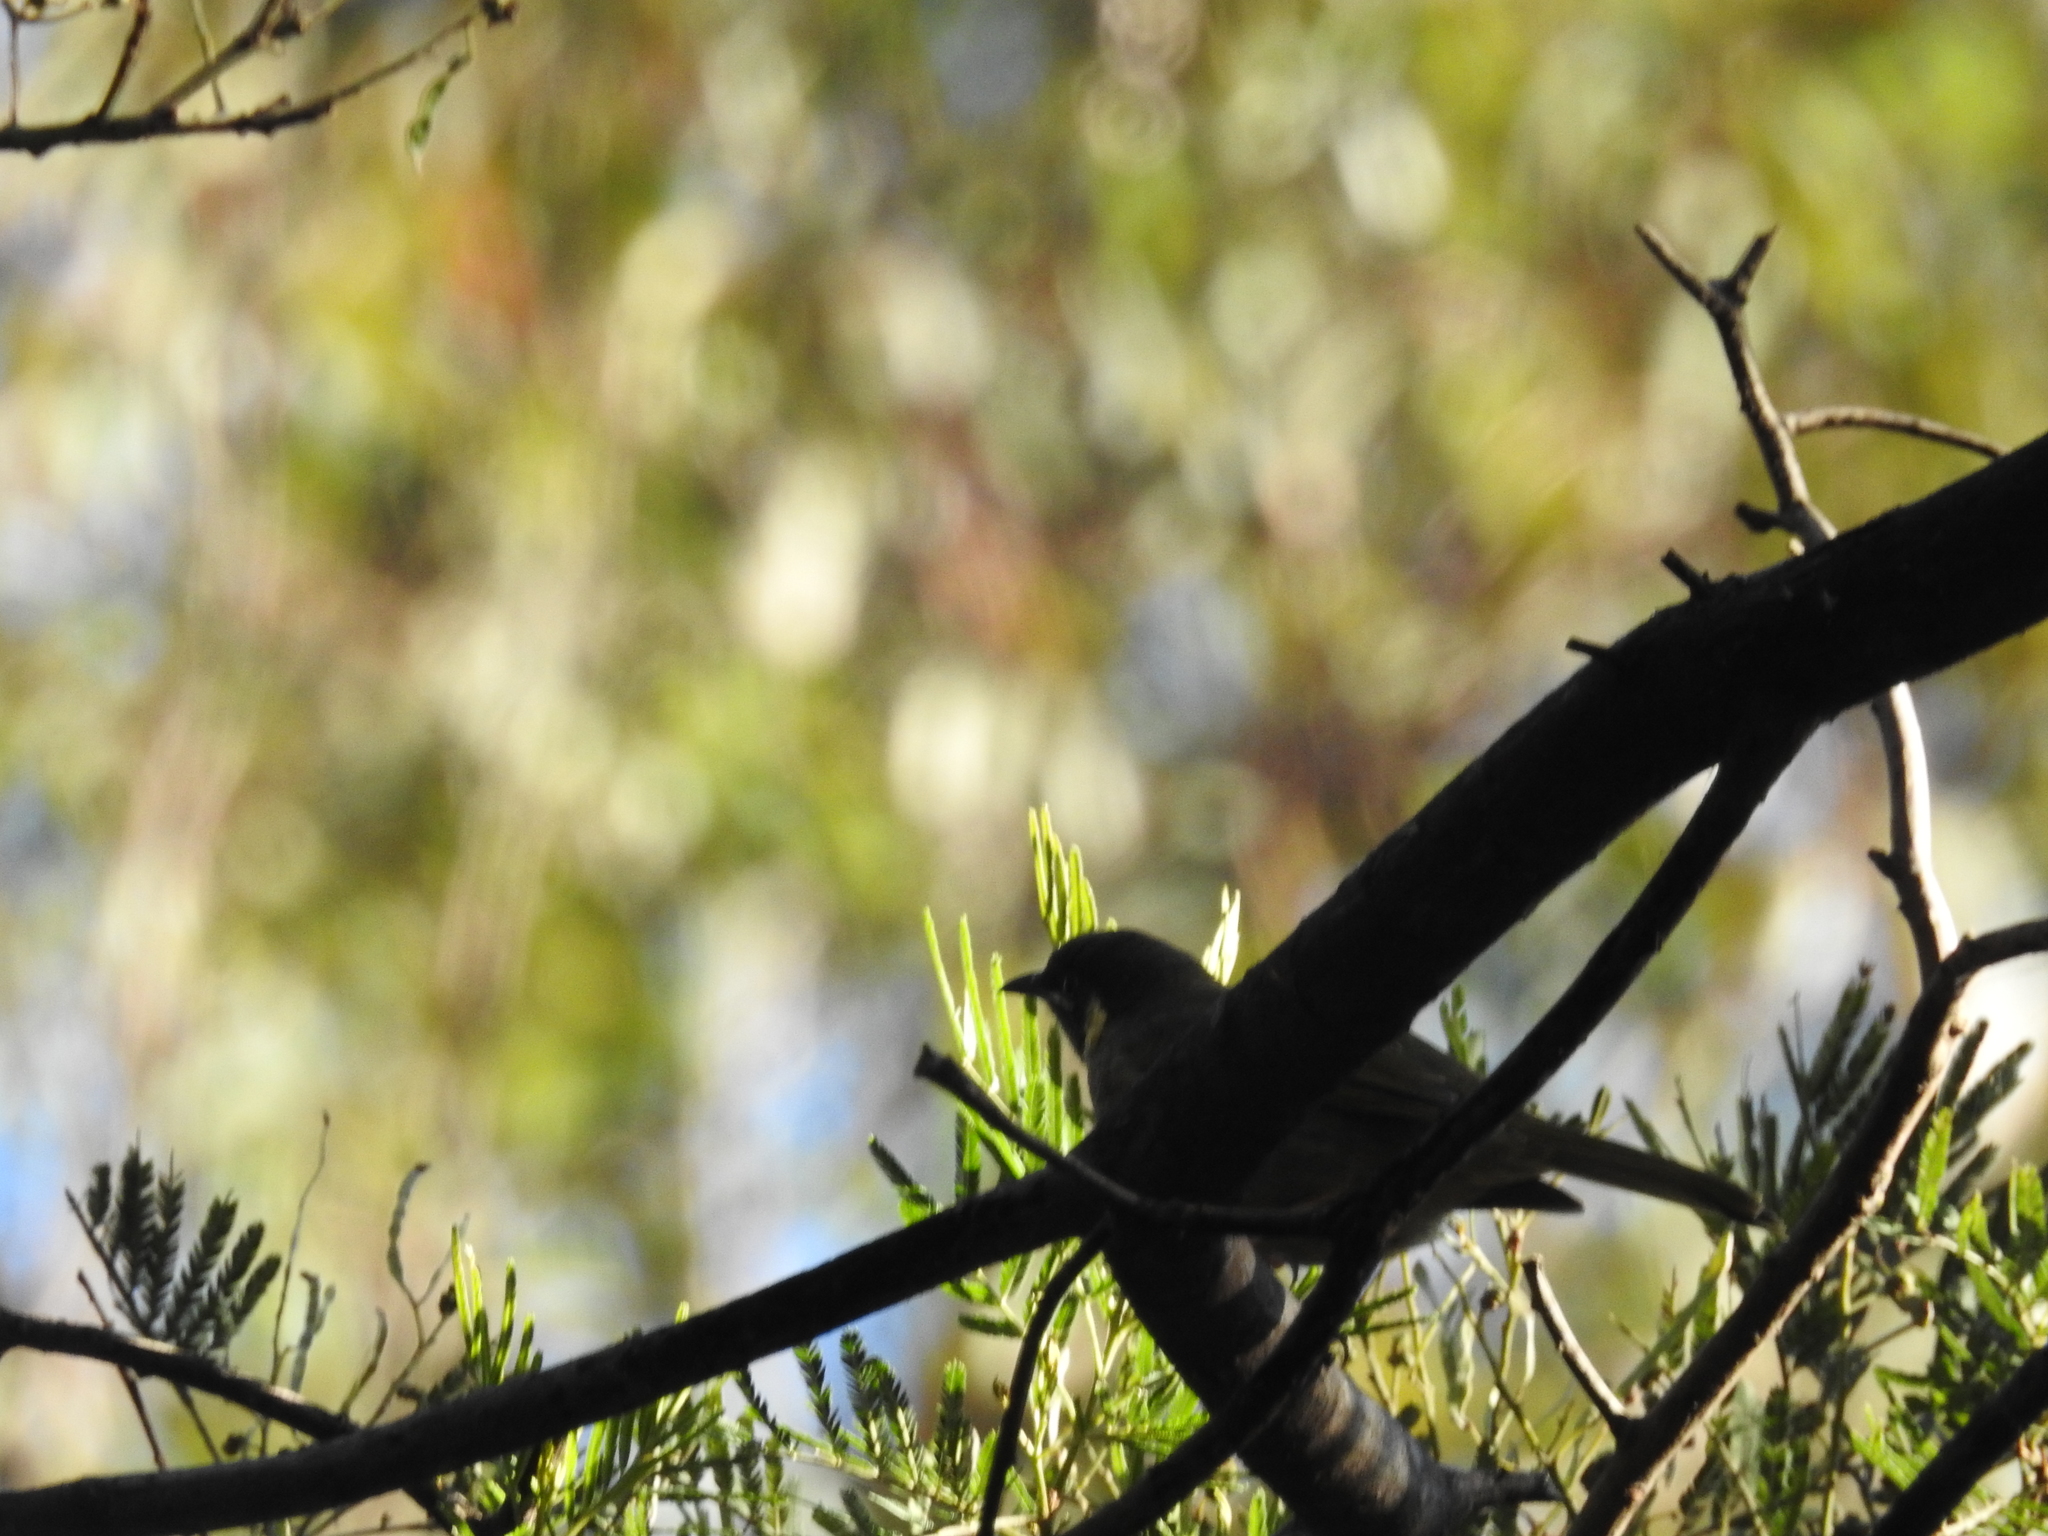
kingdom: Animalia
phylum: Chordata
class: Aves
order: Passeriformes
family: Meliphagidae
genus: Meliphaga
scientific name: Meliphaga lewinii
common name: Lewin's honeyeater
